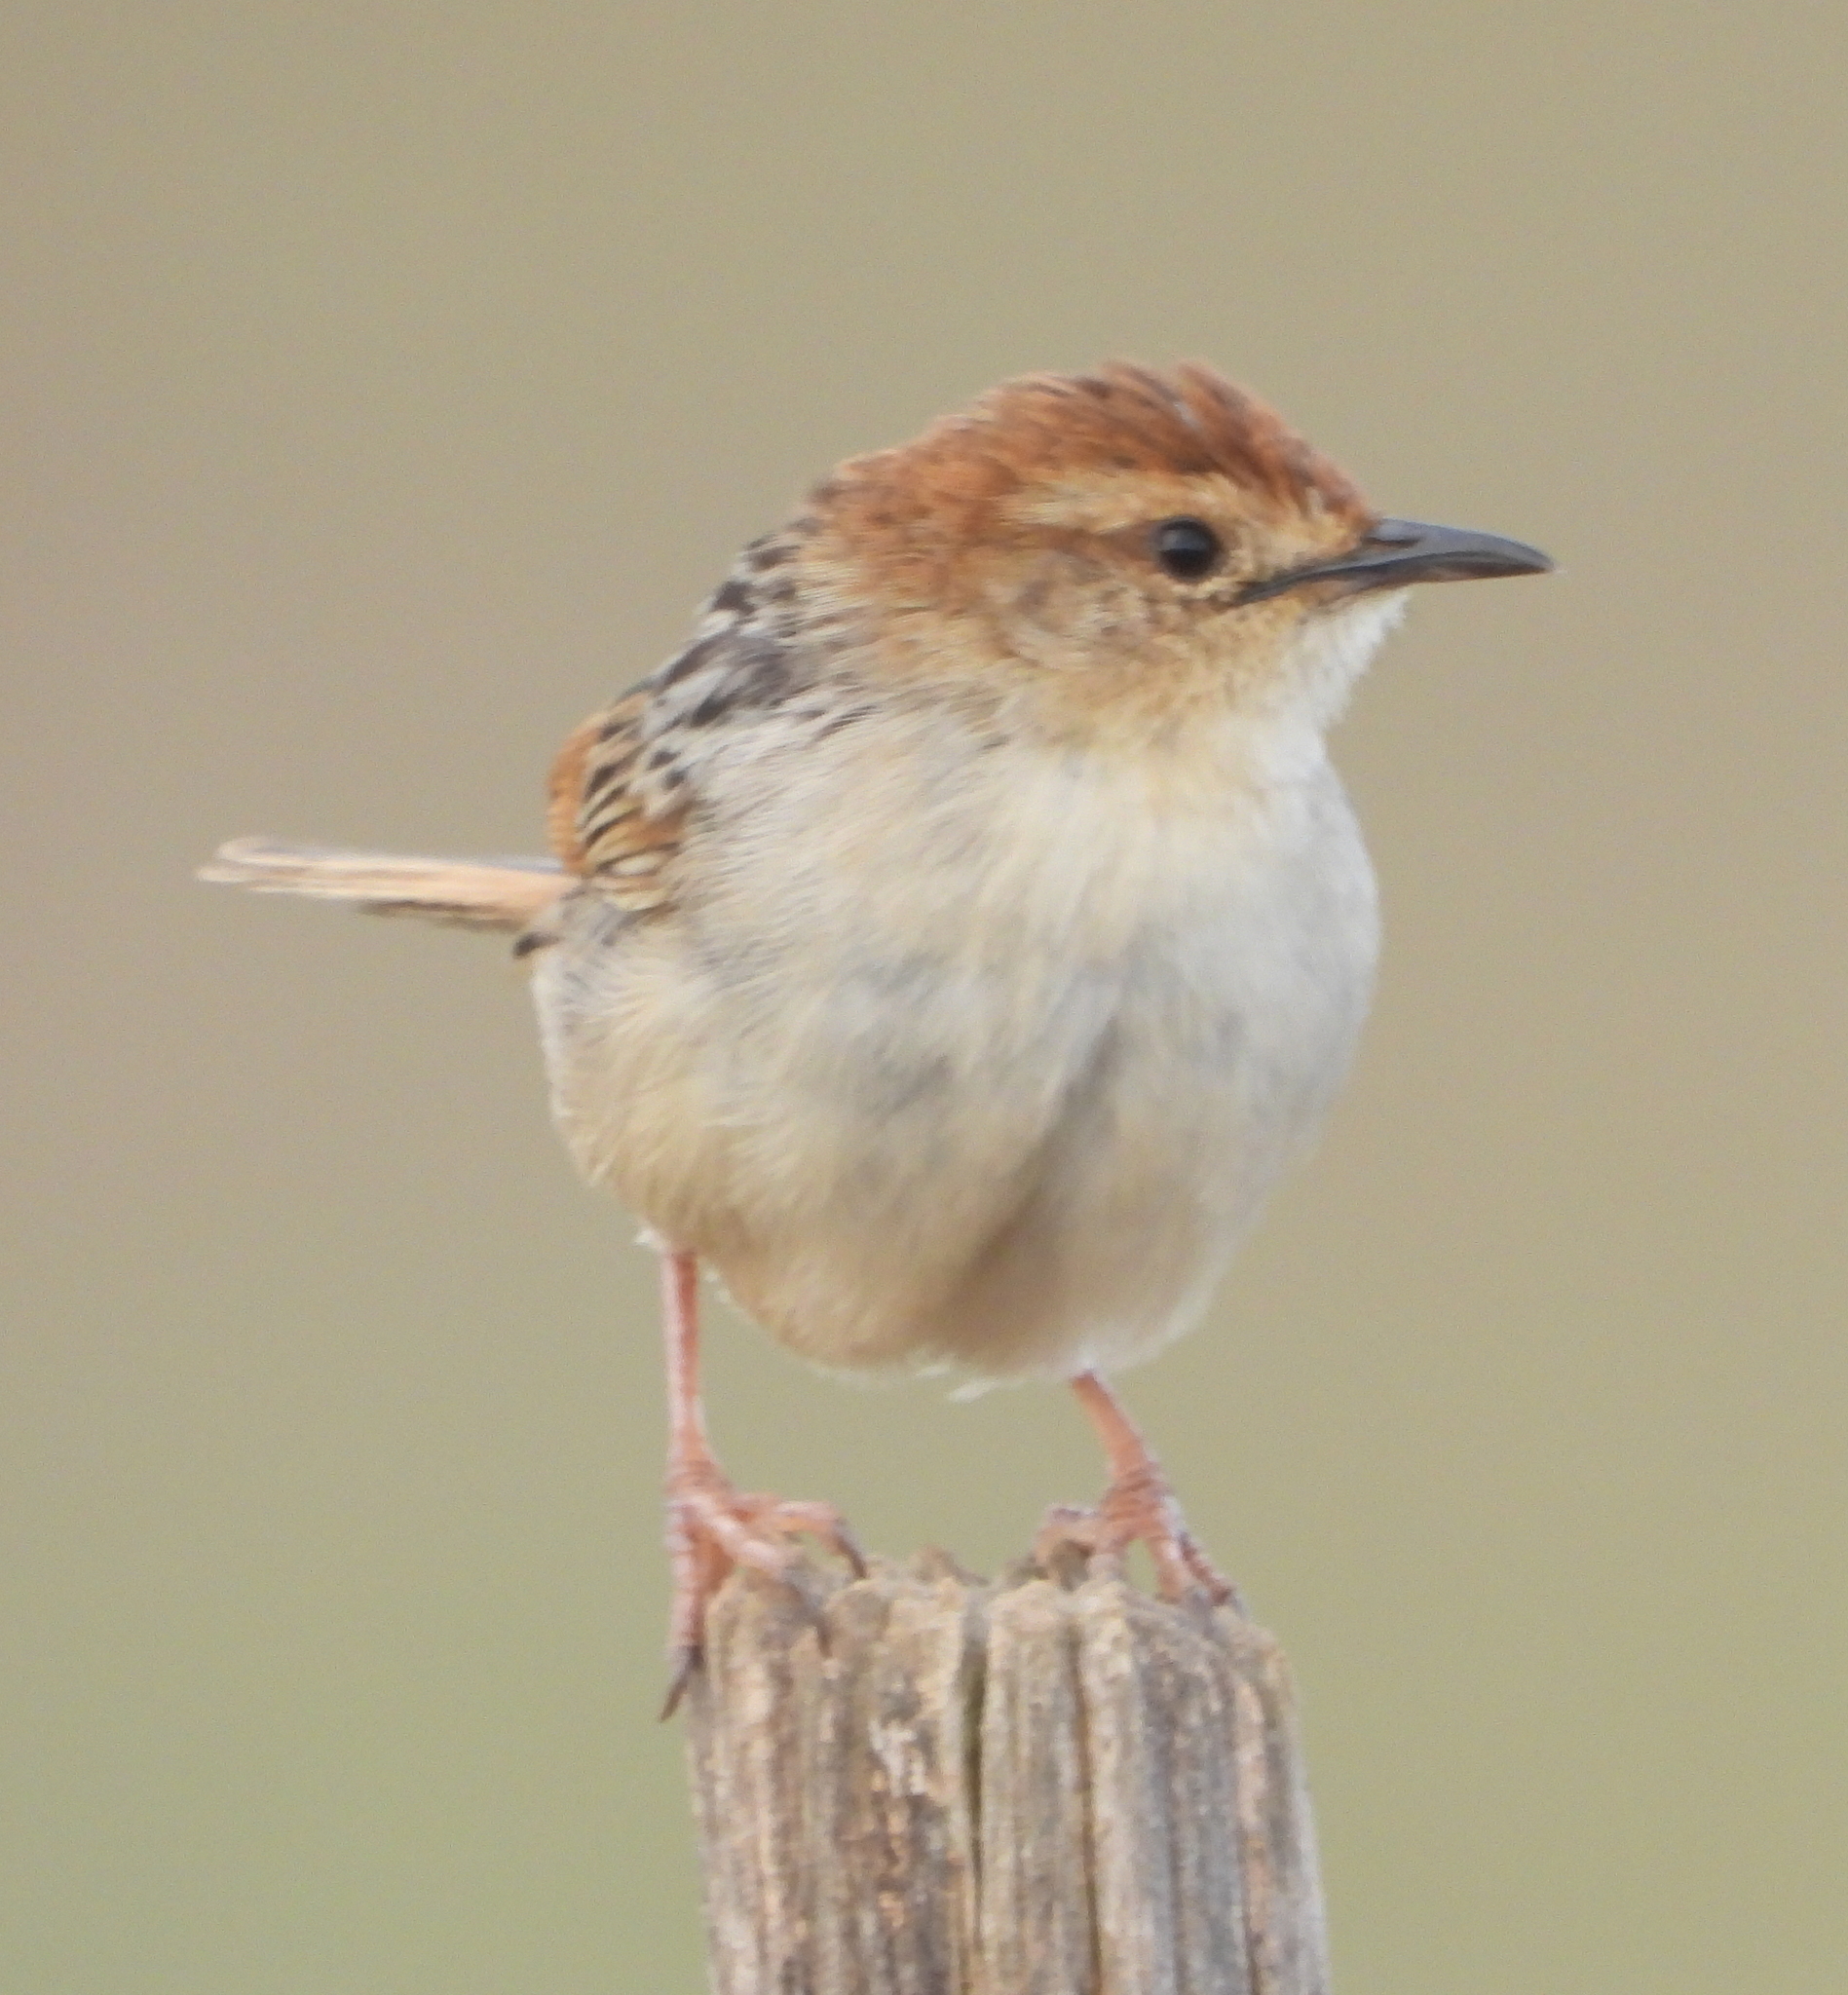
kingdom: Animalia
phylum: Chordata
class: Aves
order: Passeriformes
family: Cisticolidae
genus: Cisticola
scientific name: Cisticola tinniens
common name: Levaillant's cisticola
